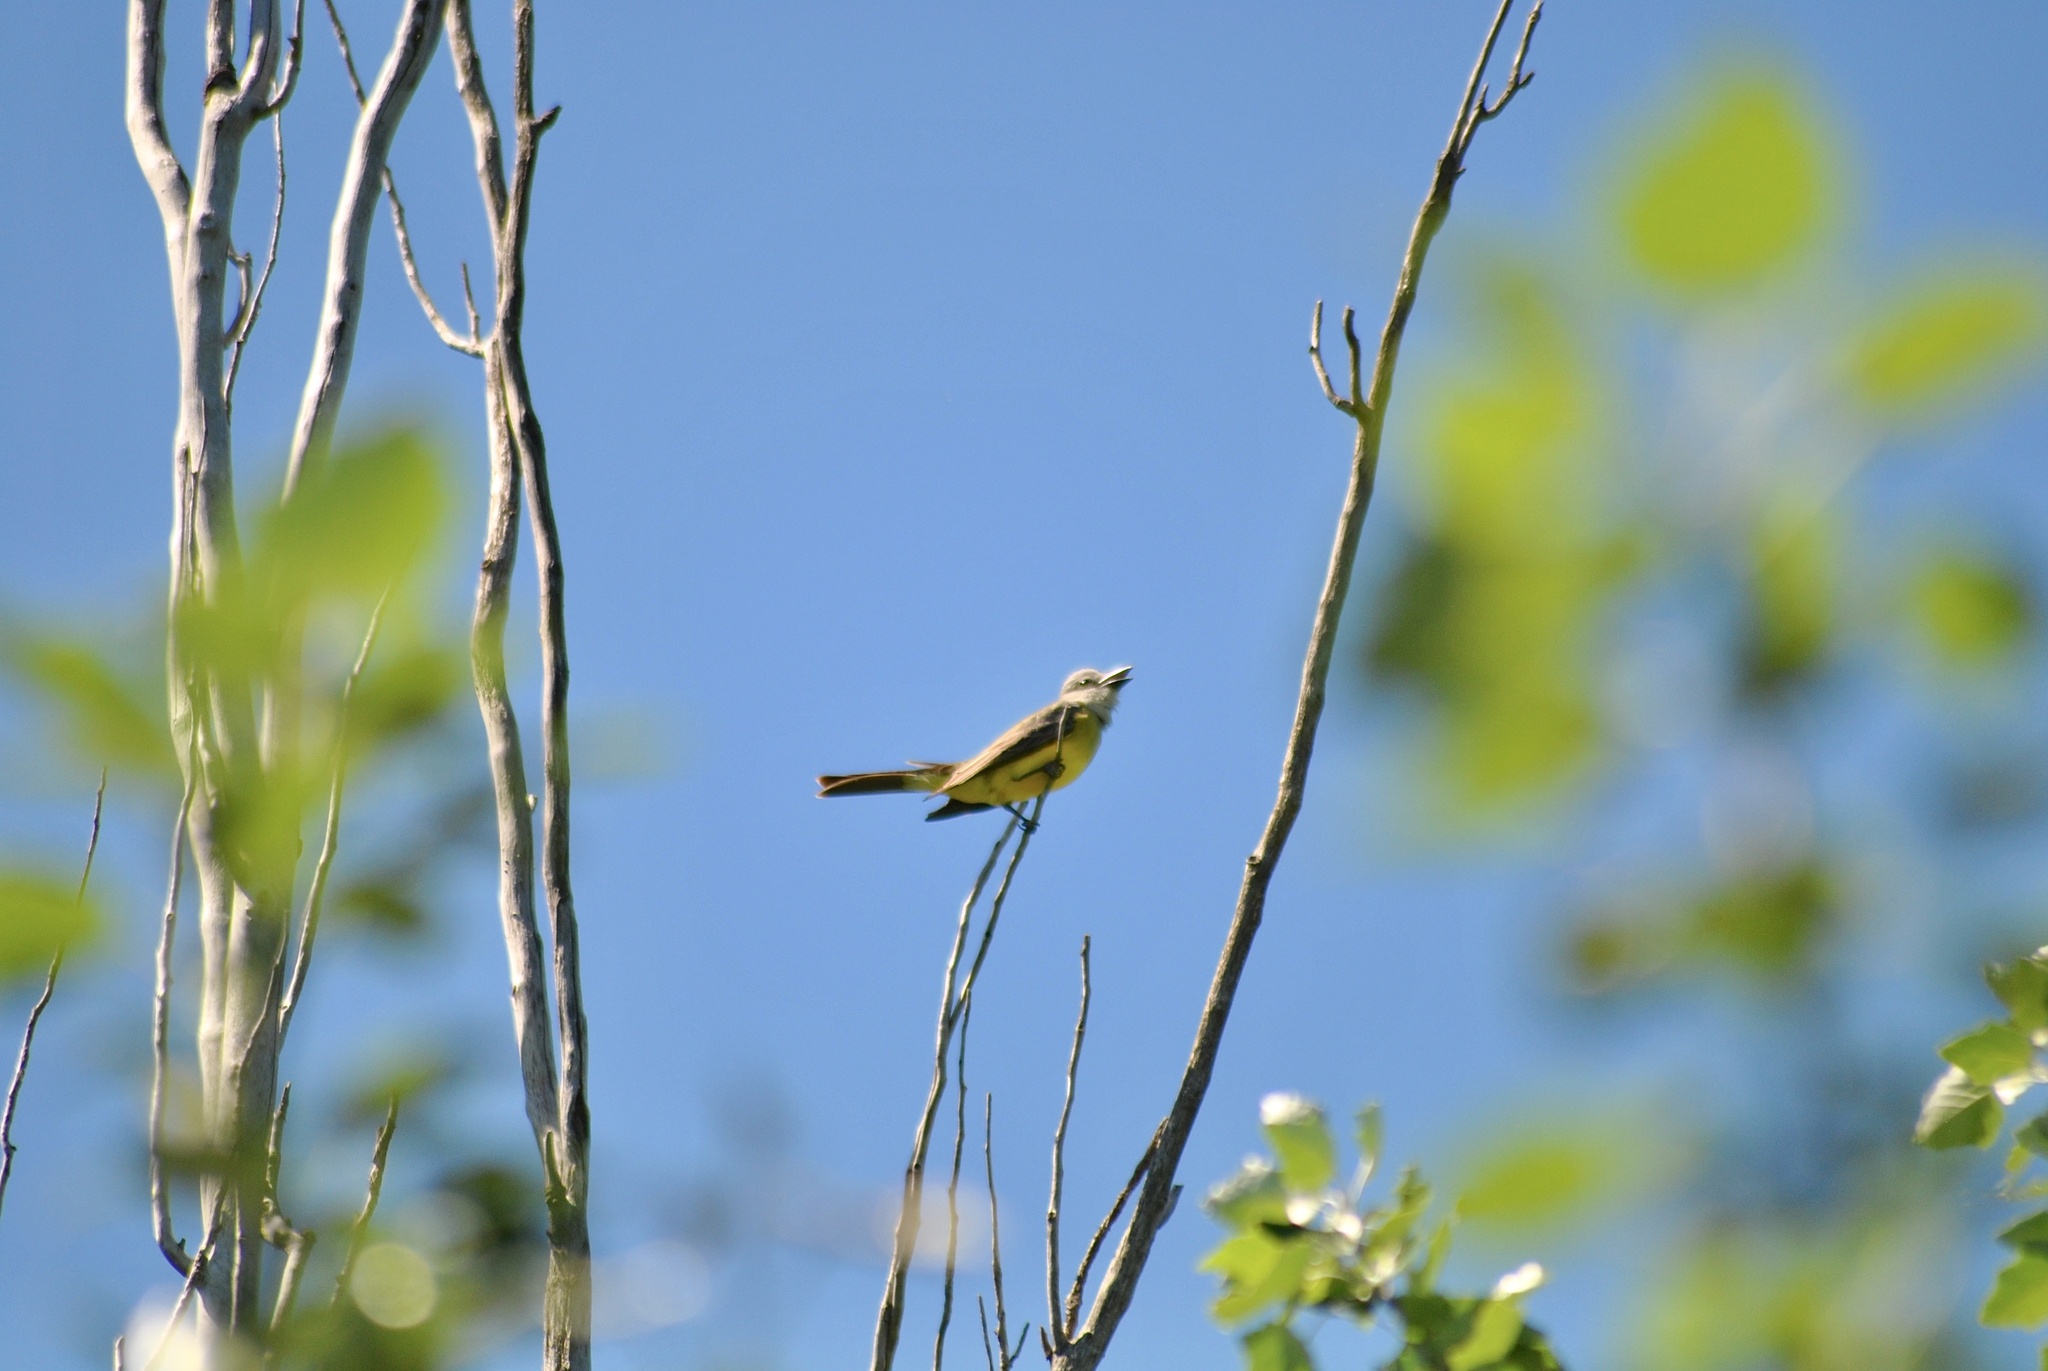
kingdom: Animalia
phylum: Chordata
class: Aves
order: Passeriformes
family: Tyrannidae
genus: Tyrannus
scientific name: Tyrannus melancholicus
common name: Tropical kingbird
